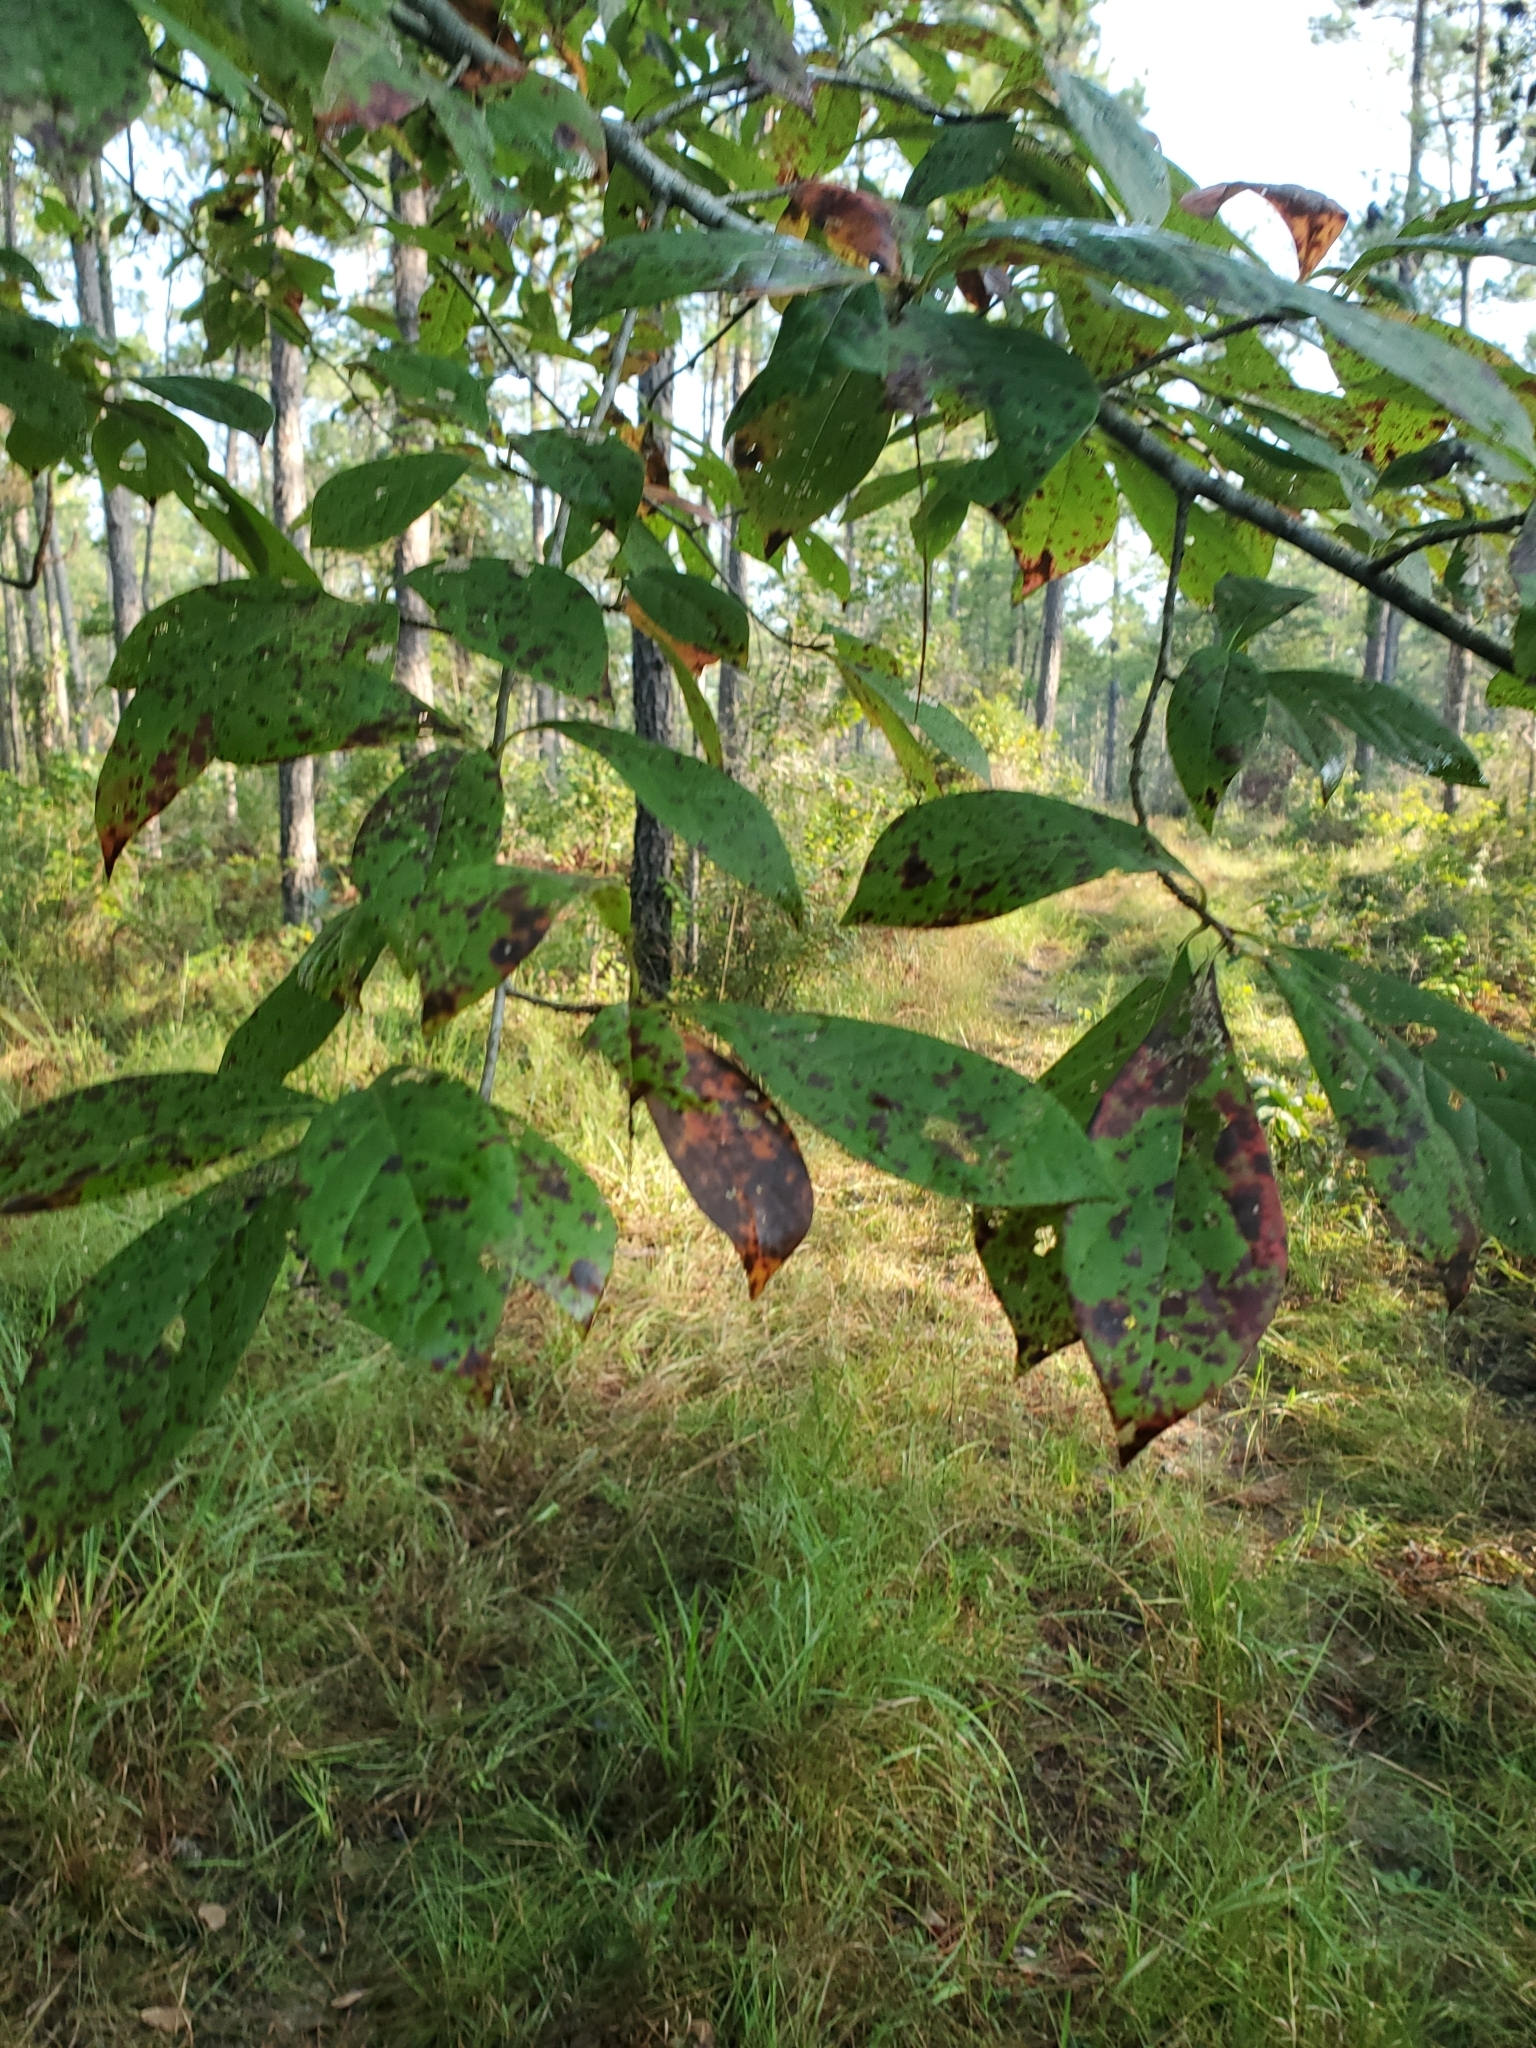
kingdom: Plantae
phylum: Tracheophyta
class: Magnoliopsida
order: Cornales
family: Nyssaceae
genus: Nyssa
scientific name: Nyssa sylvatica
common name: Black tupelo
